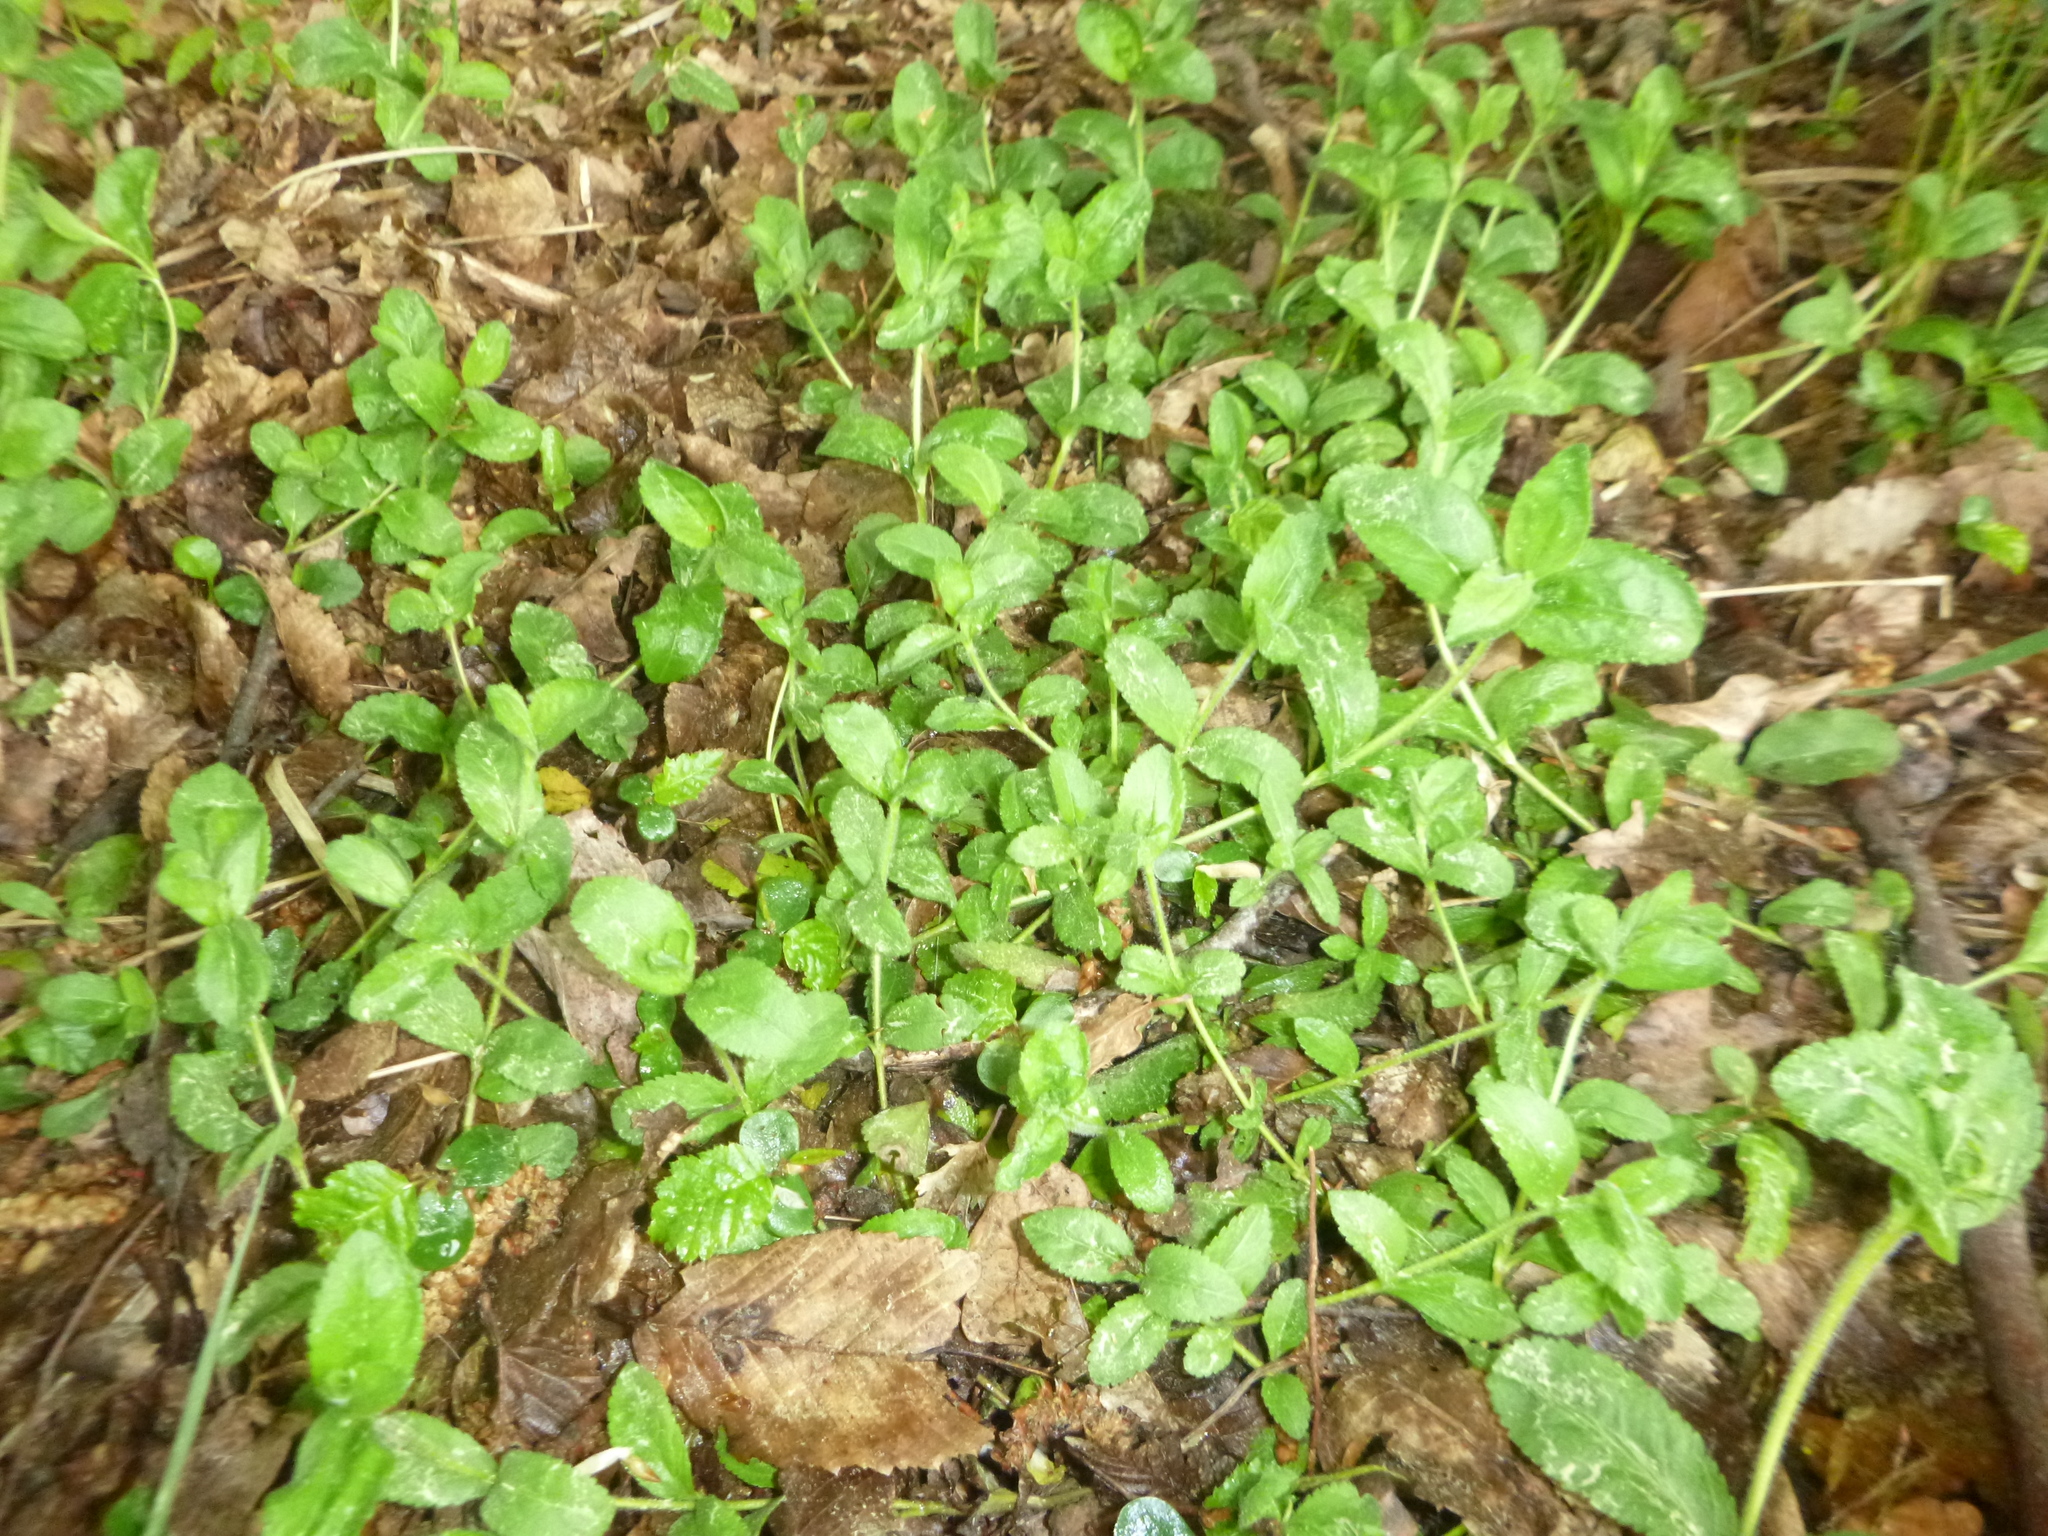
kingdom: Plantae
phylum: Tracheophyta
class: Magnoliopsida
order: Lamiales
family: Plantaginaceae
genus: Veronica
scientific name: Veronica officinalis
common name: Common speedwell
